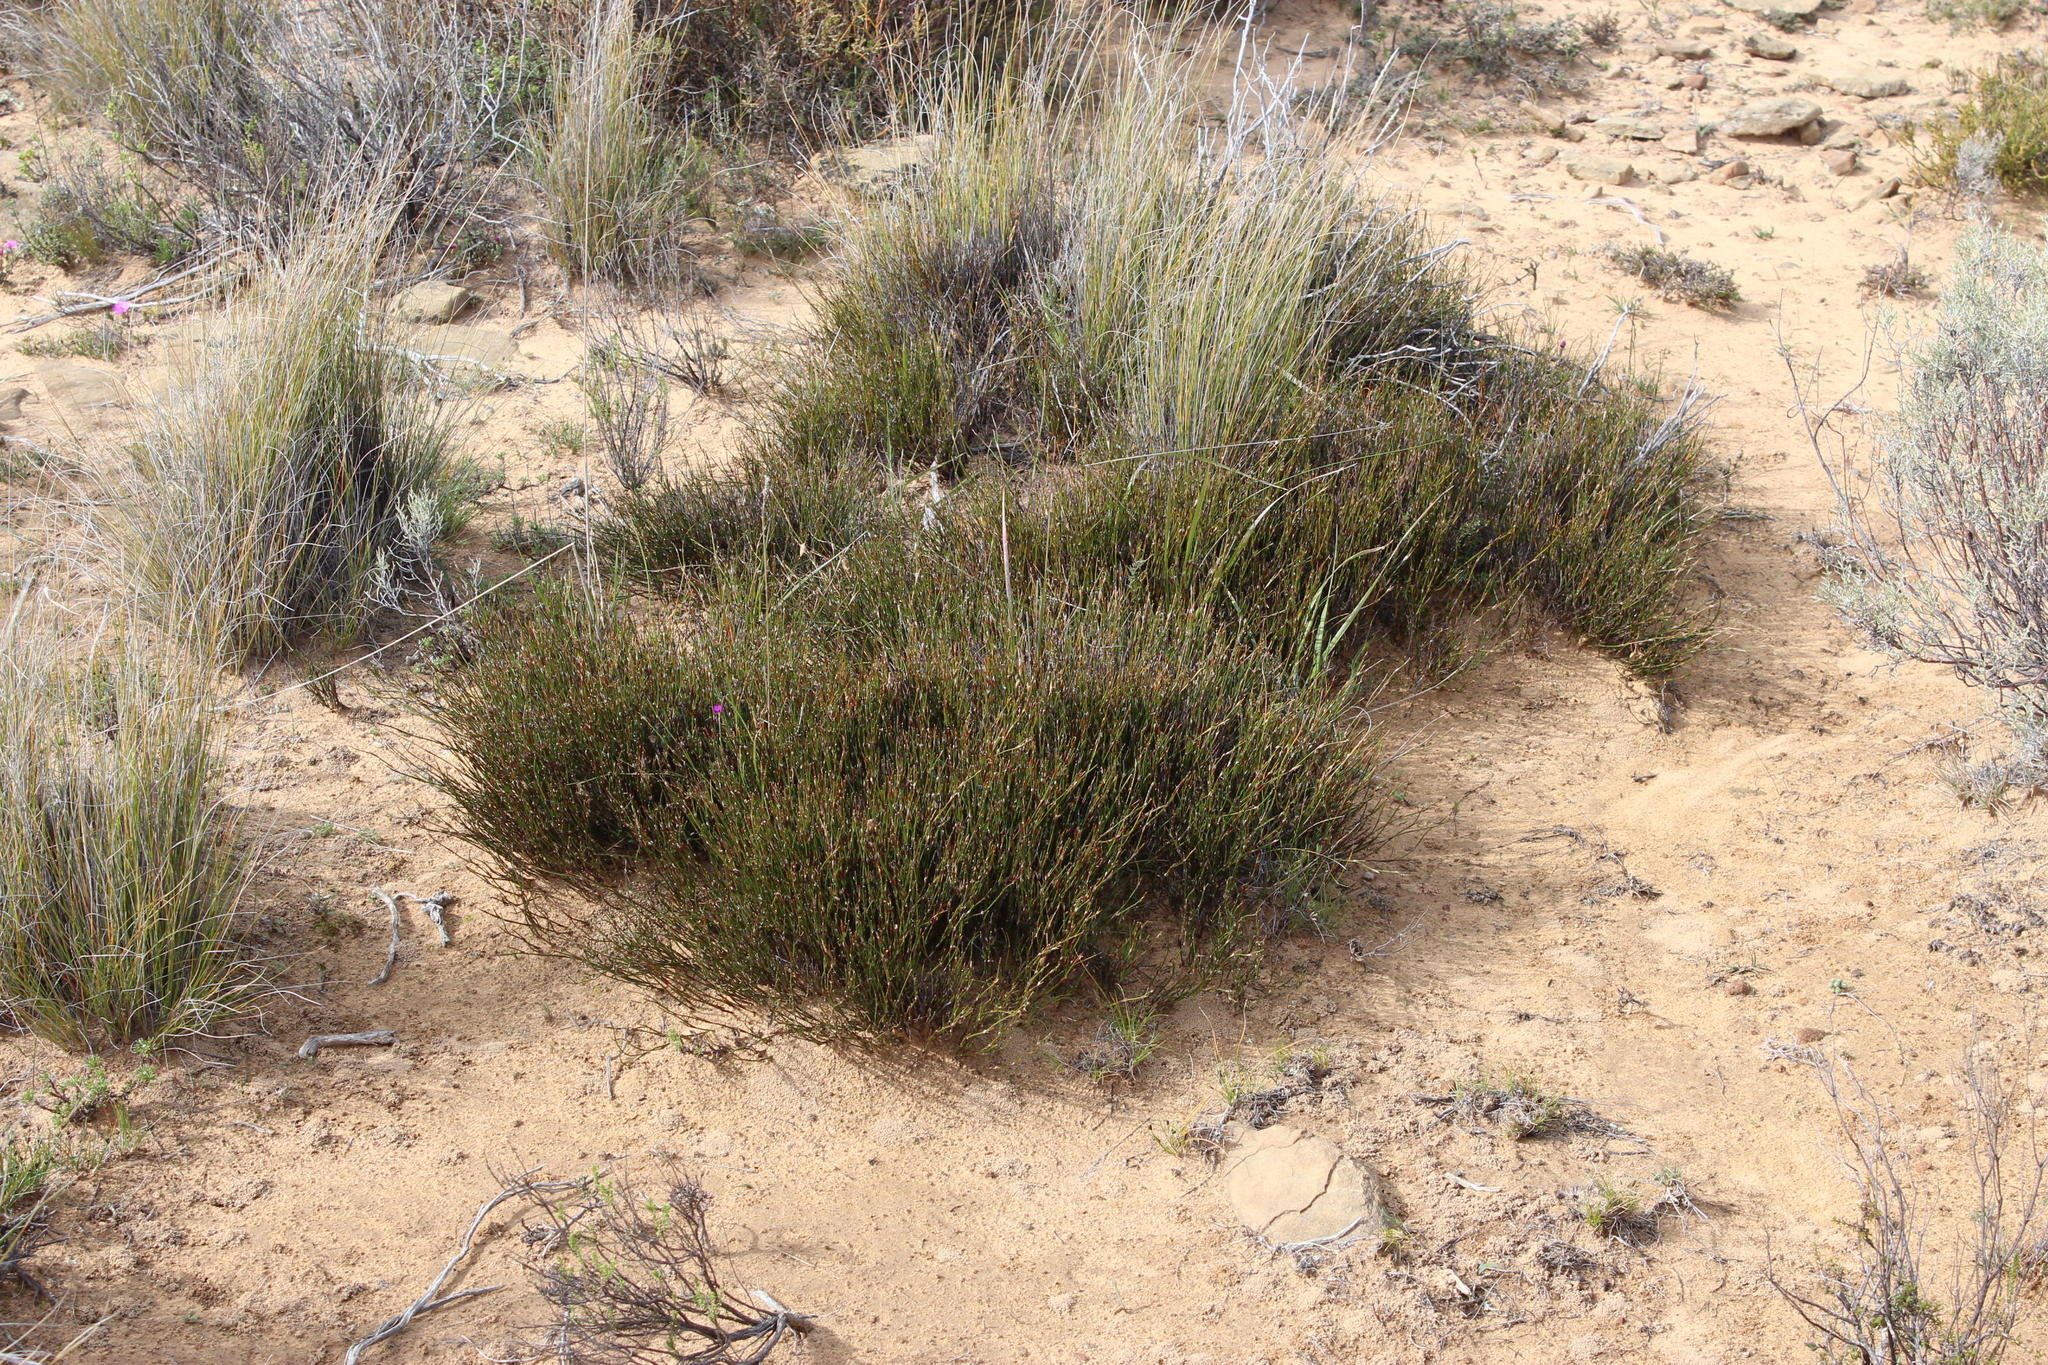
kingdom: Plantae
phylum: Tracheophyta
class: Liliopsida
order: Poales
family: Restionaceae
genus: Restio
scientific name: Restio gossypinus
